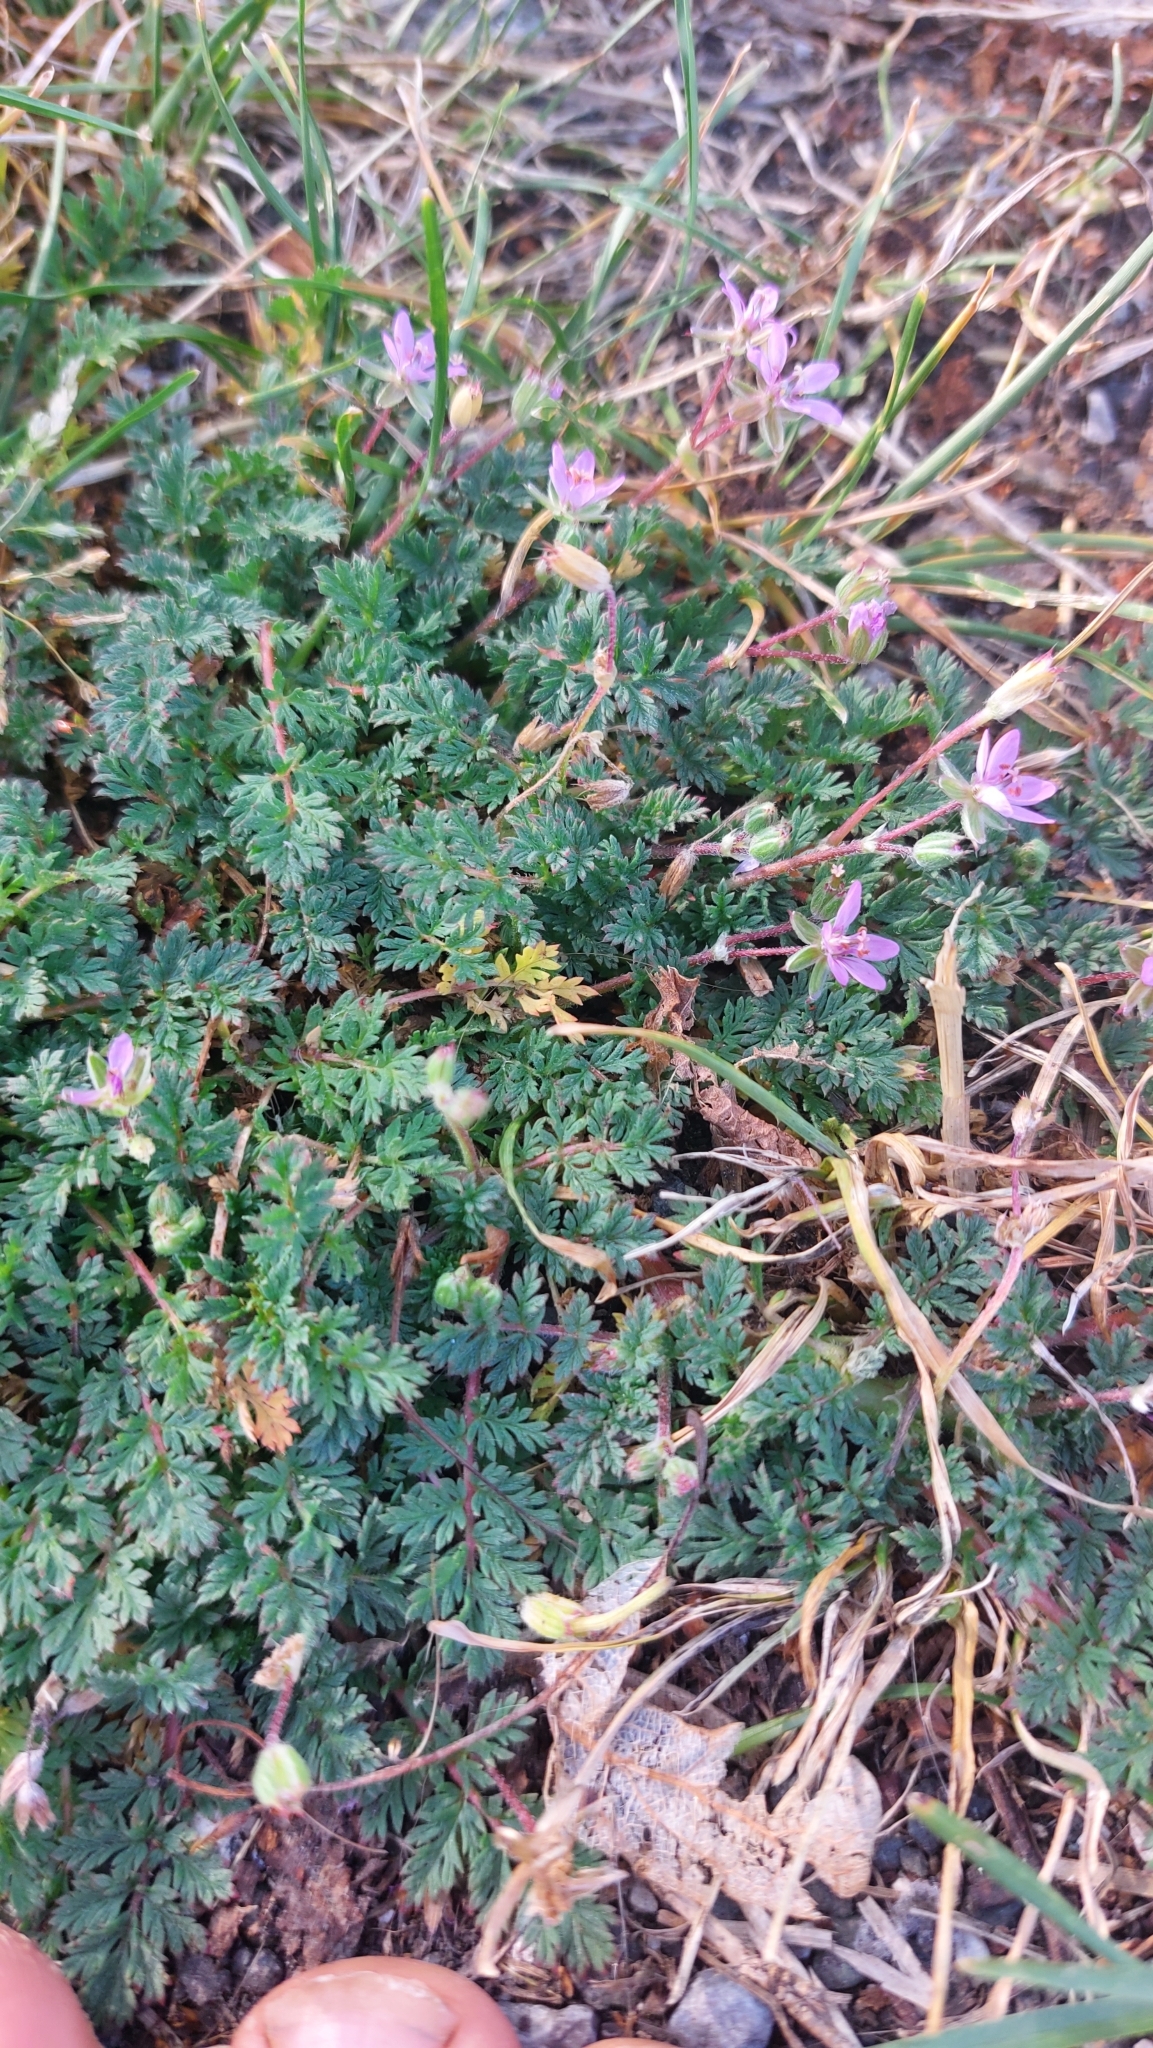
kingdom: Plantae
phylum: Tracheophyta
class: Magnoliopsida
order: Geraniales
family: Geraniaceae
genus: Erodium
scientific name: Erodium cicutarium
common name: Common stork's-bill
